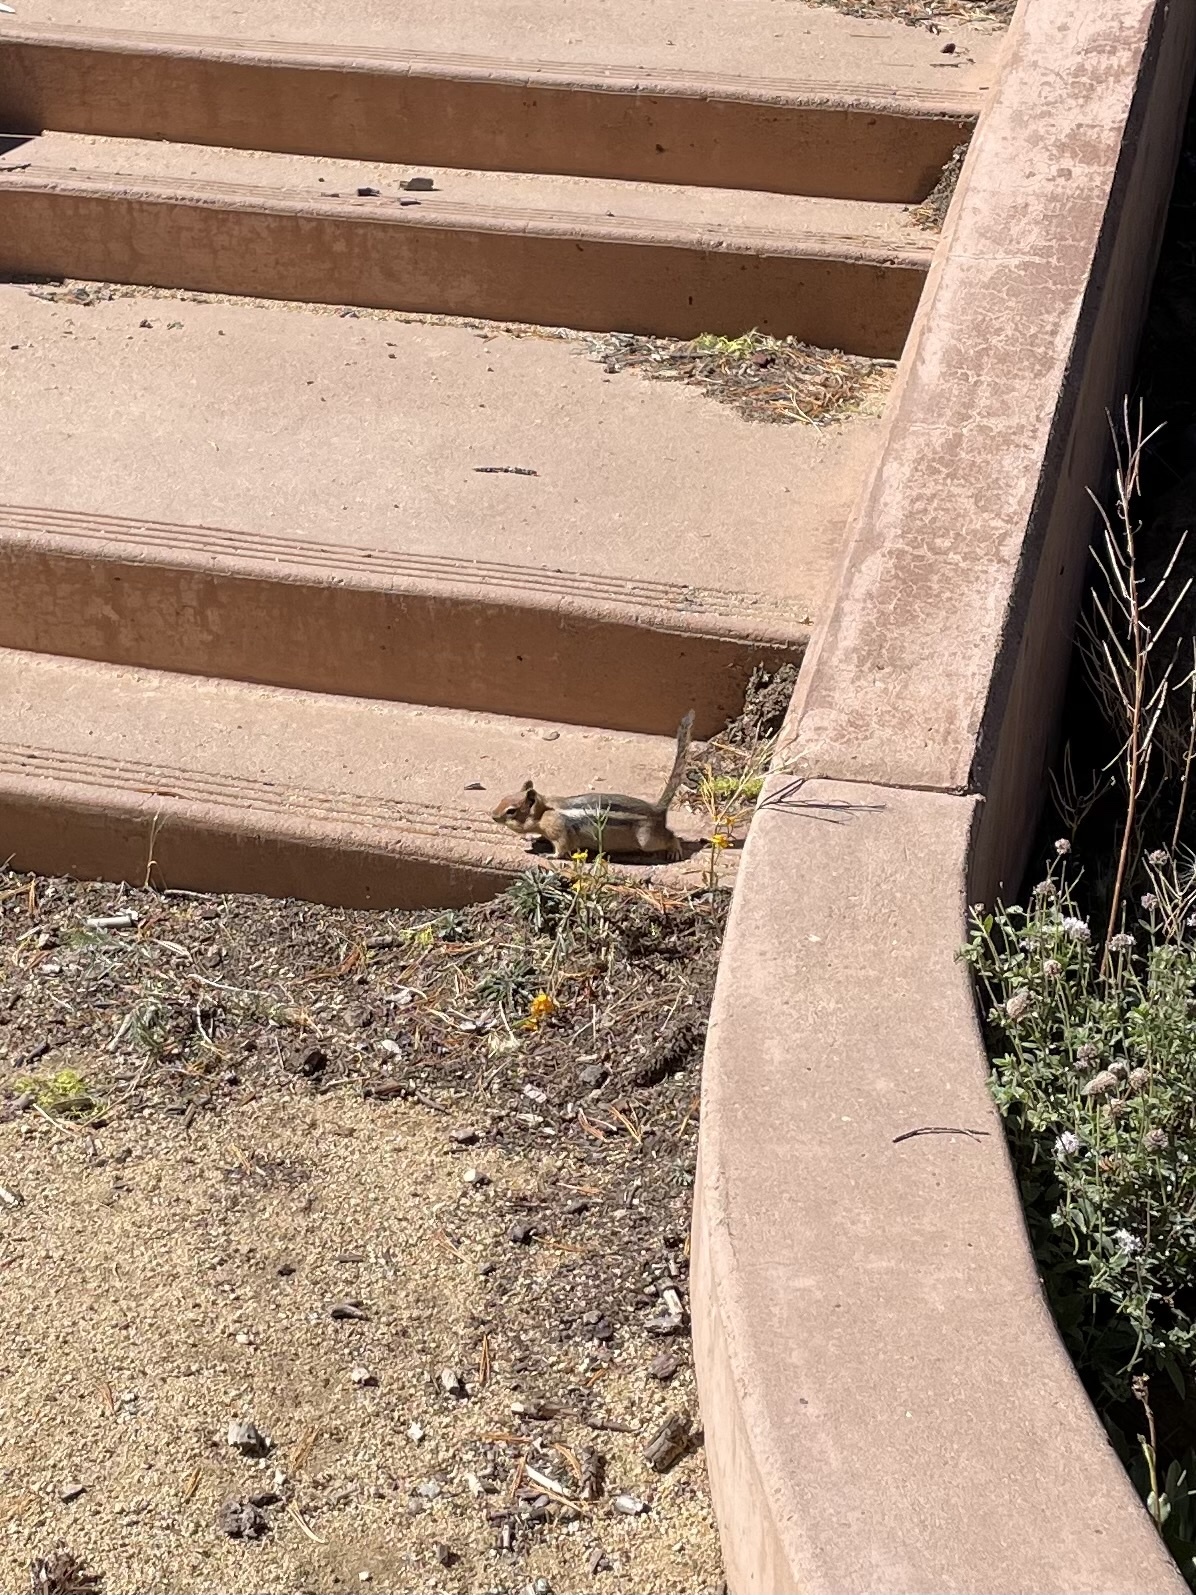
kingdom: Animalia
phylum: Chordata
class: Mammalia
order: Rodentia
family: Sciuridae
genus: Callospermophilus
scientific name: Callospermophilus lateralis
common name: Golden-mantled ground squirrel
